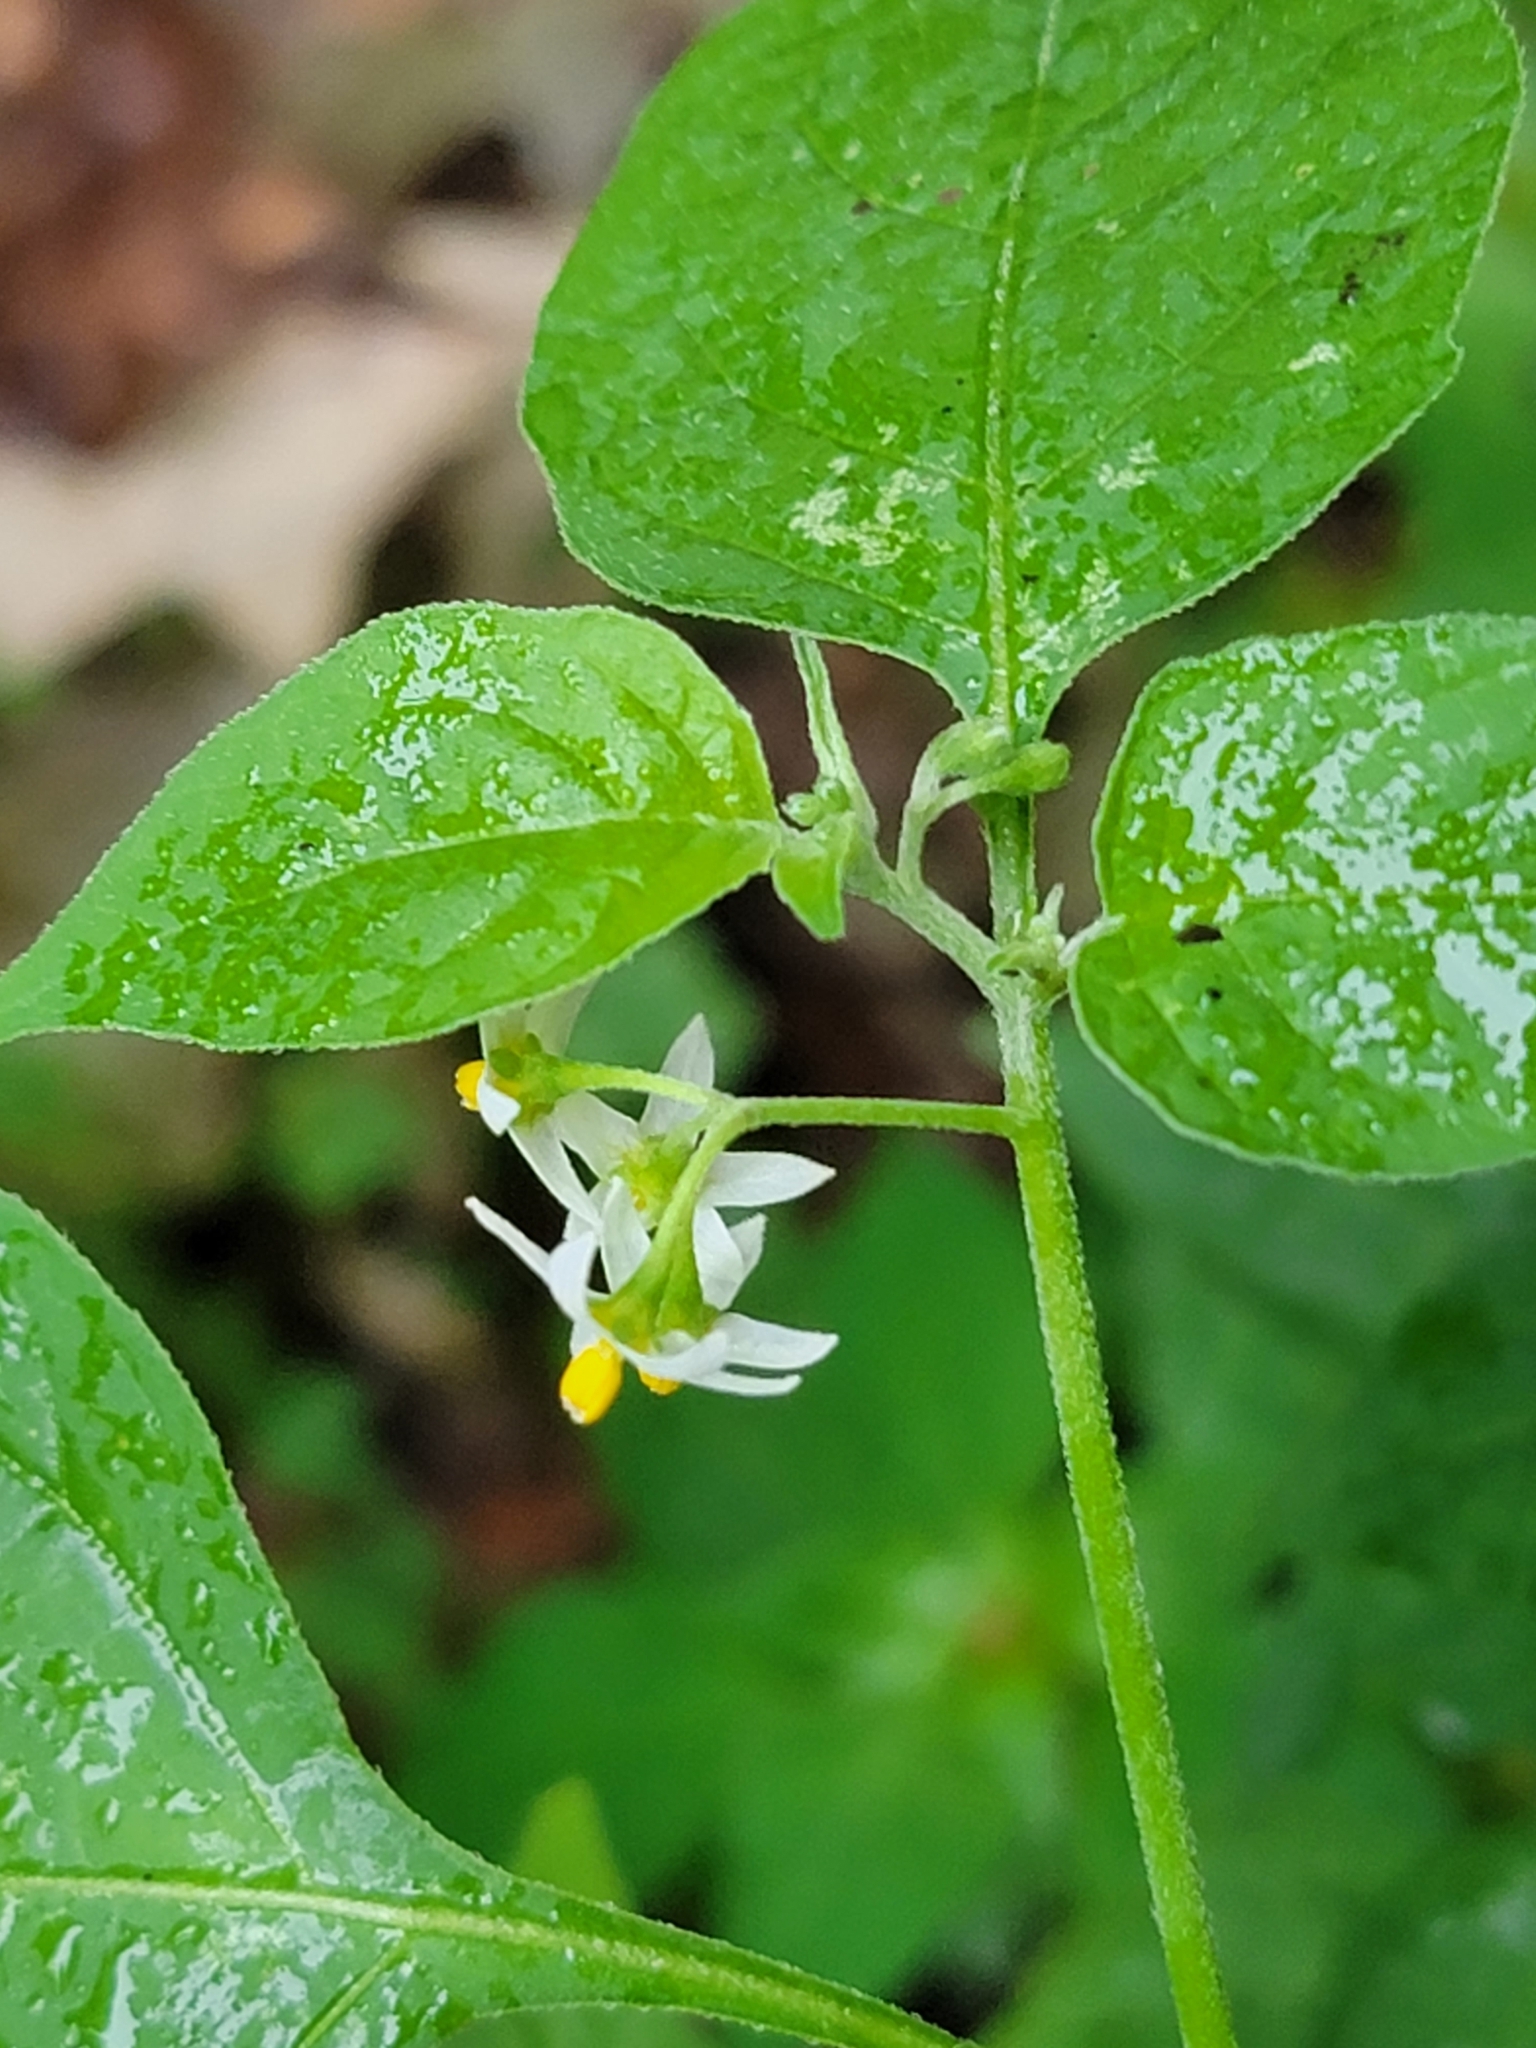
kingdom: Plantae
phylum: Tracheophyta
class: Magnoliopsida
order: Solanales
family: Solanaceae
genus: Solanum
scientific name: Solanum emulans
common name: Eastern black nightshade
